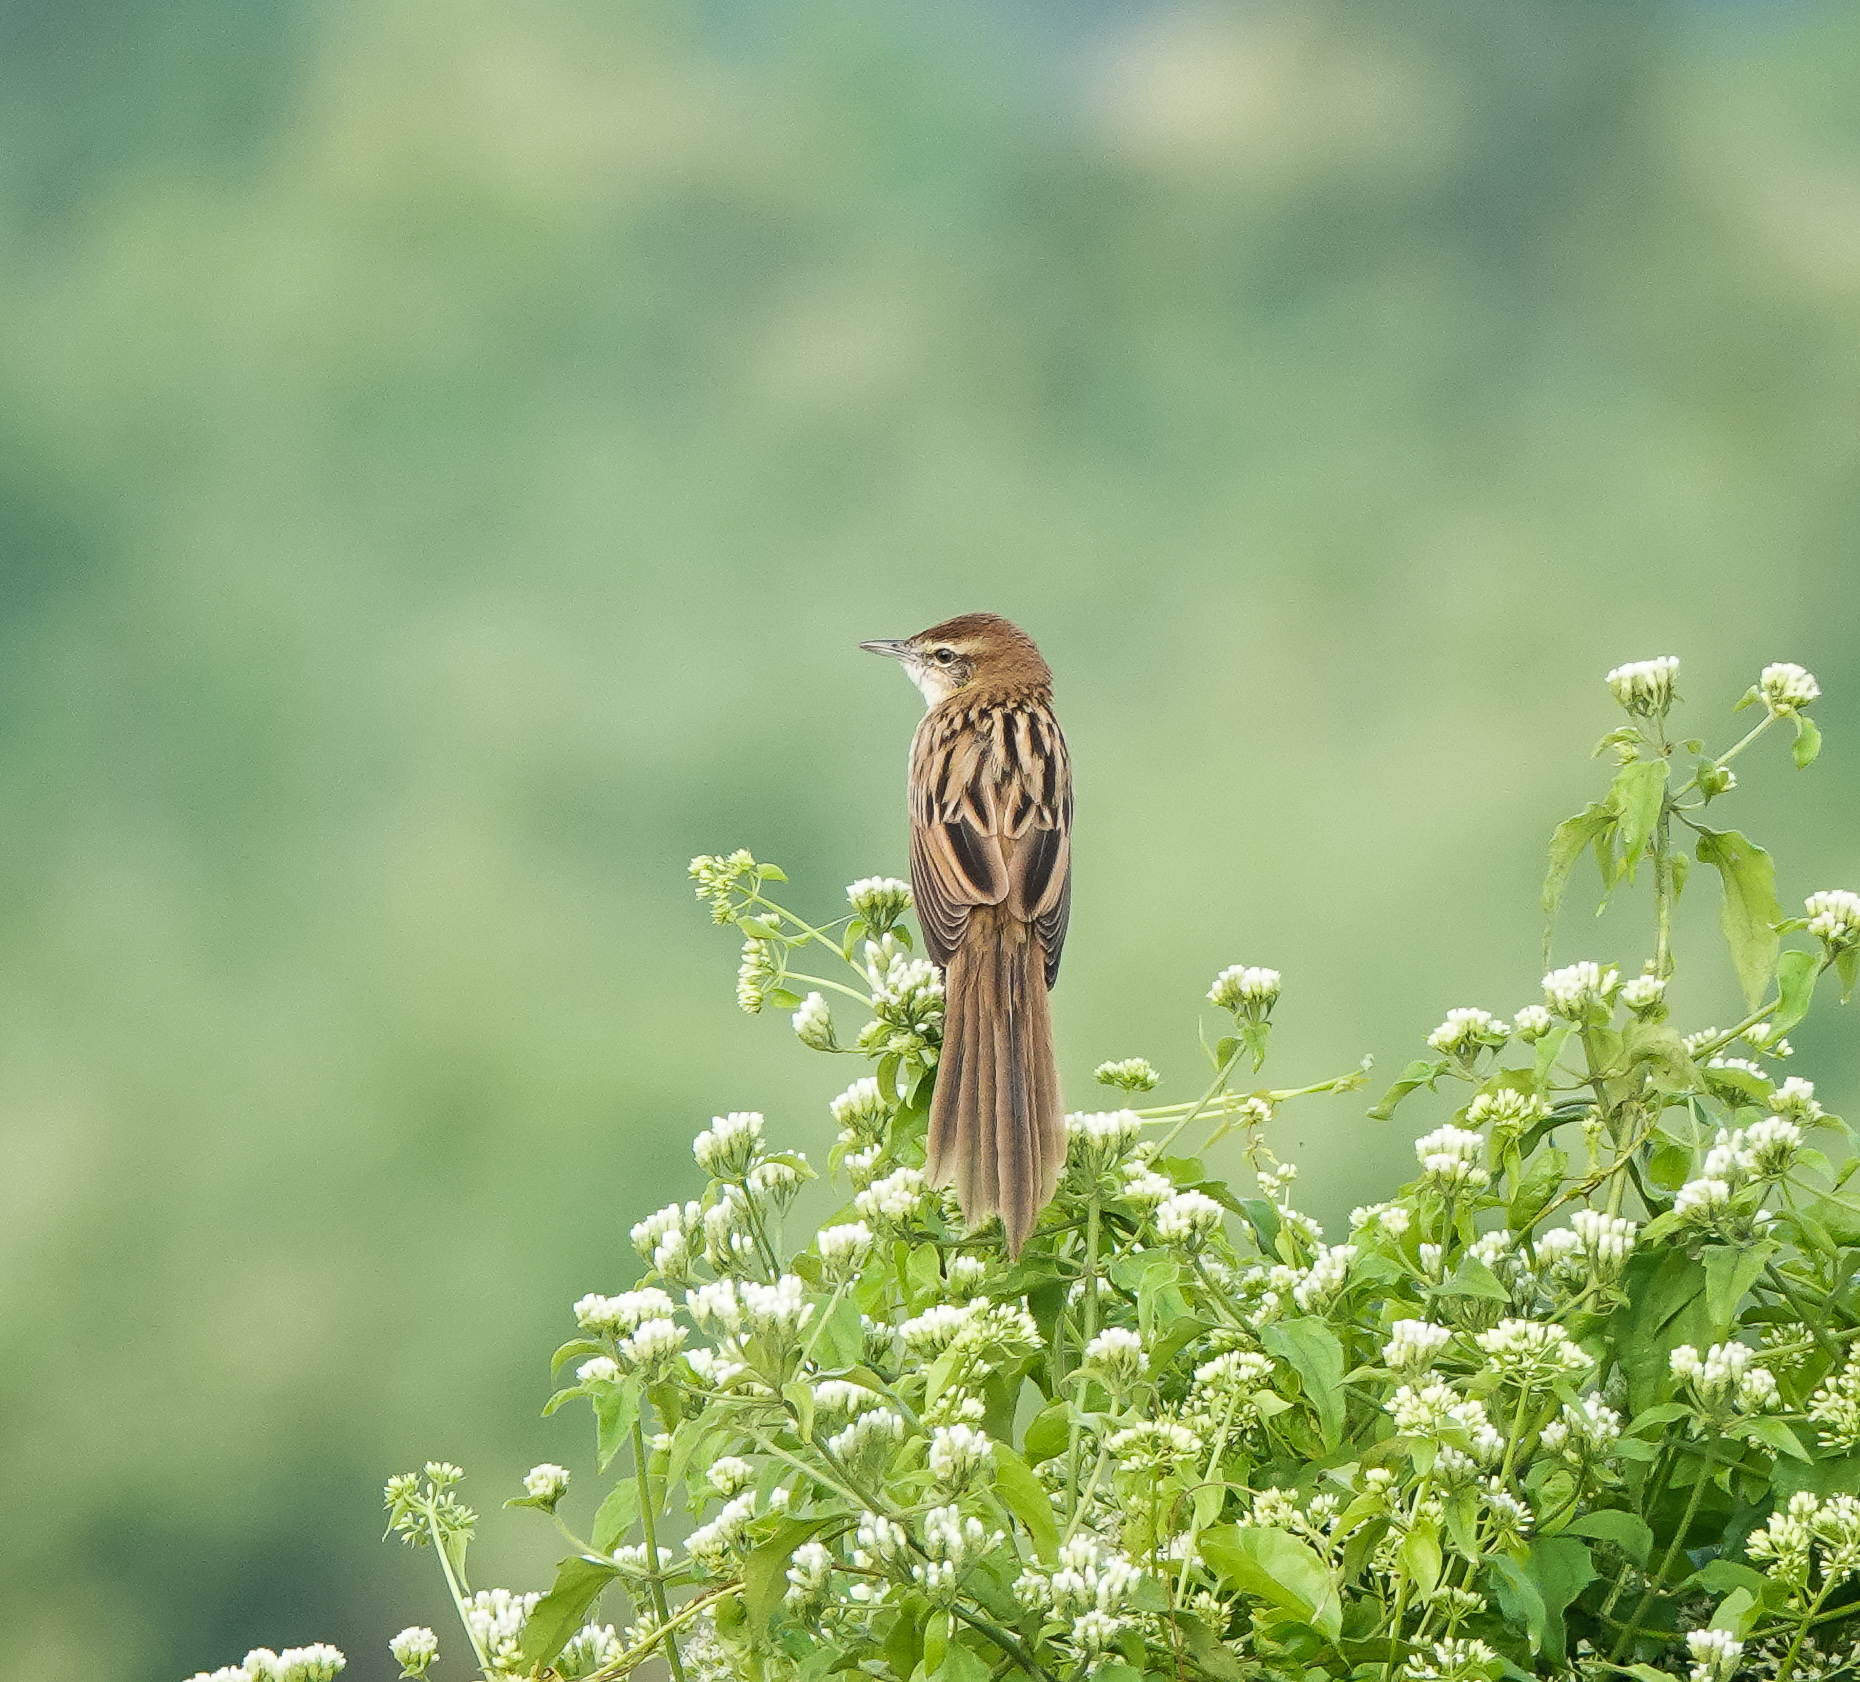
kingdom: Animalia
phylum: Chordata
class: Aves
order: Passeriformes
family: Locustellidae
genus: Megalurus
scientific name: Megalurus palustris
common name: Striated grassbird
